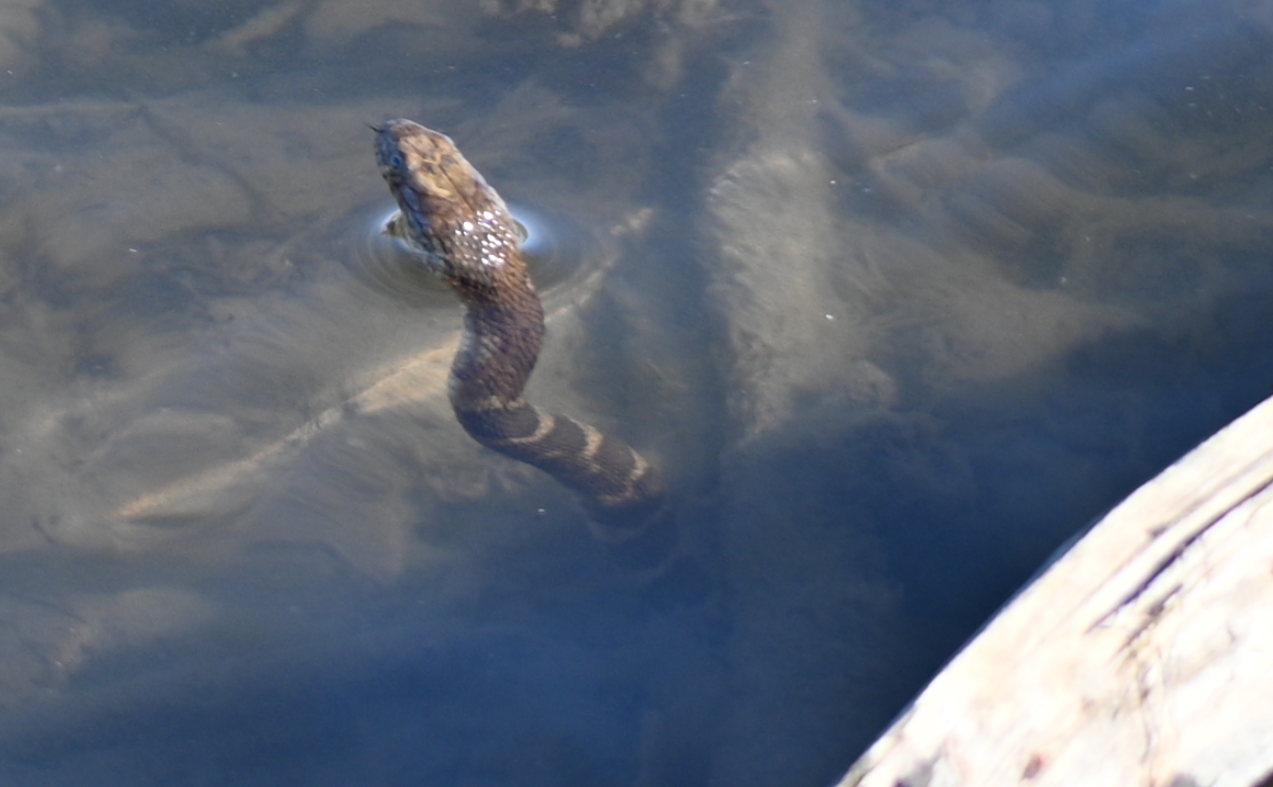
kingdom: Animalia
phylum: Chordata
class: Squamata
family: Colubridae
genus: Nerodia
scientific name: Nerodia sipedon
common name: Northern water snake
